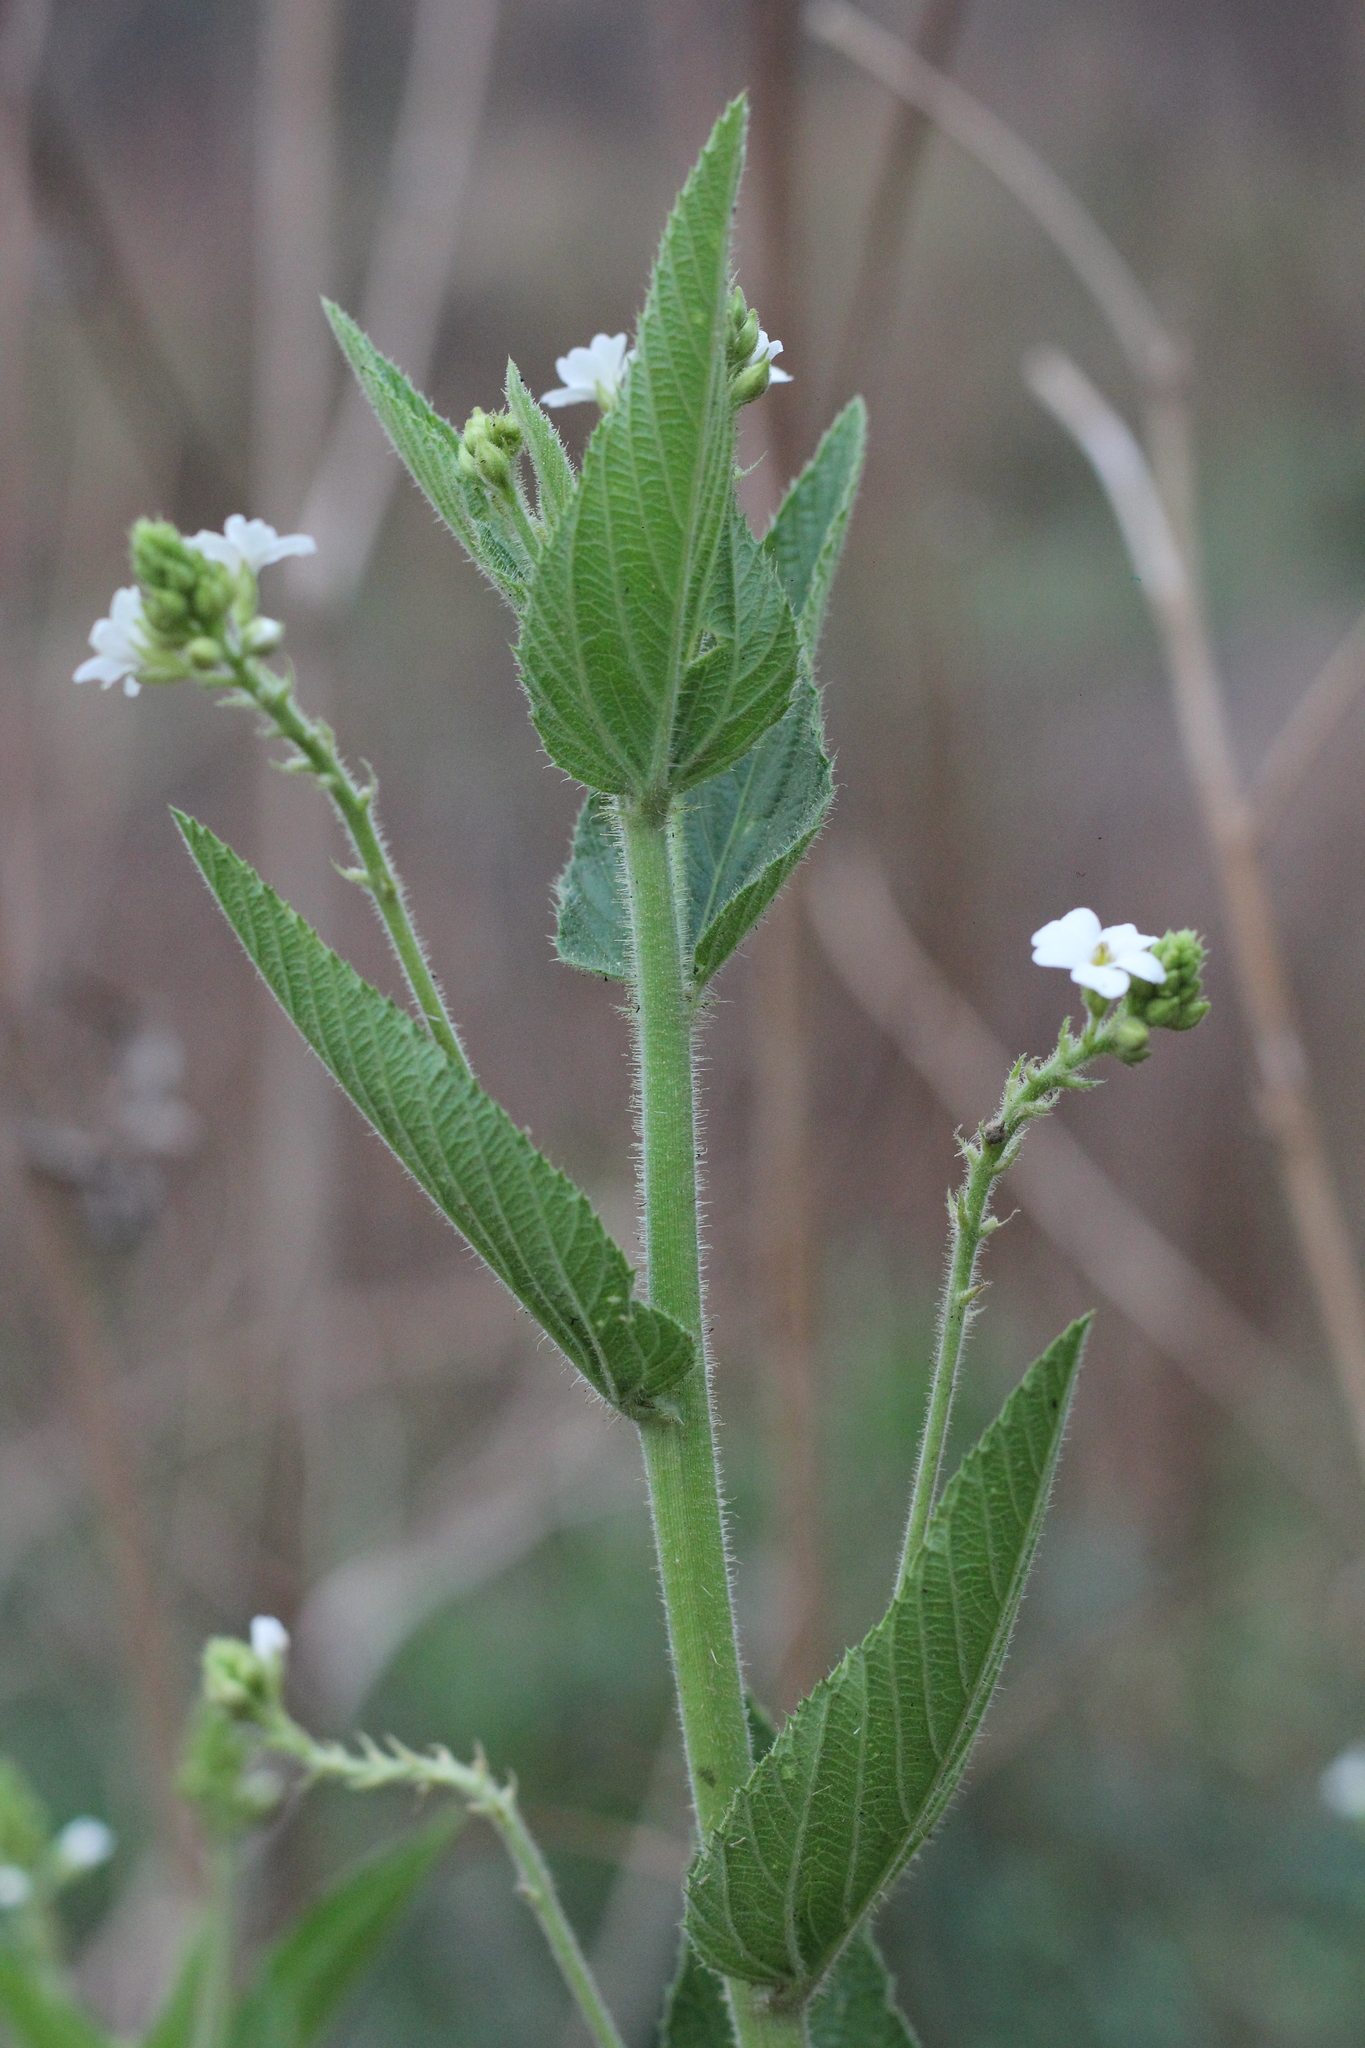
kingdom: Plantae
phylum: Tracheophyta
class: Magnoliopsida
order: Malpighiales
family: Euphorbiaceae
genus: Caperonia
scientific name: Caperonia cordata
